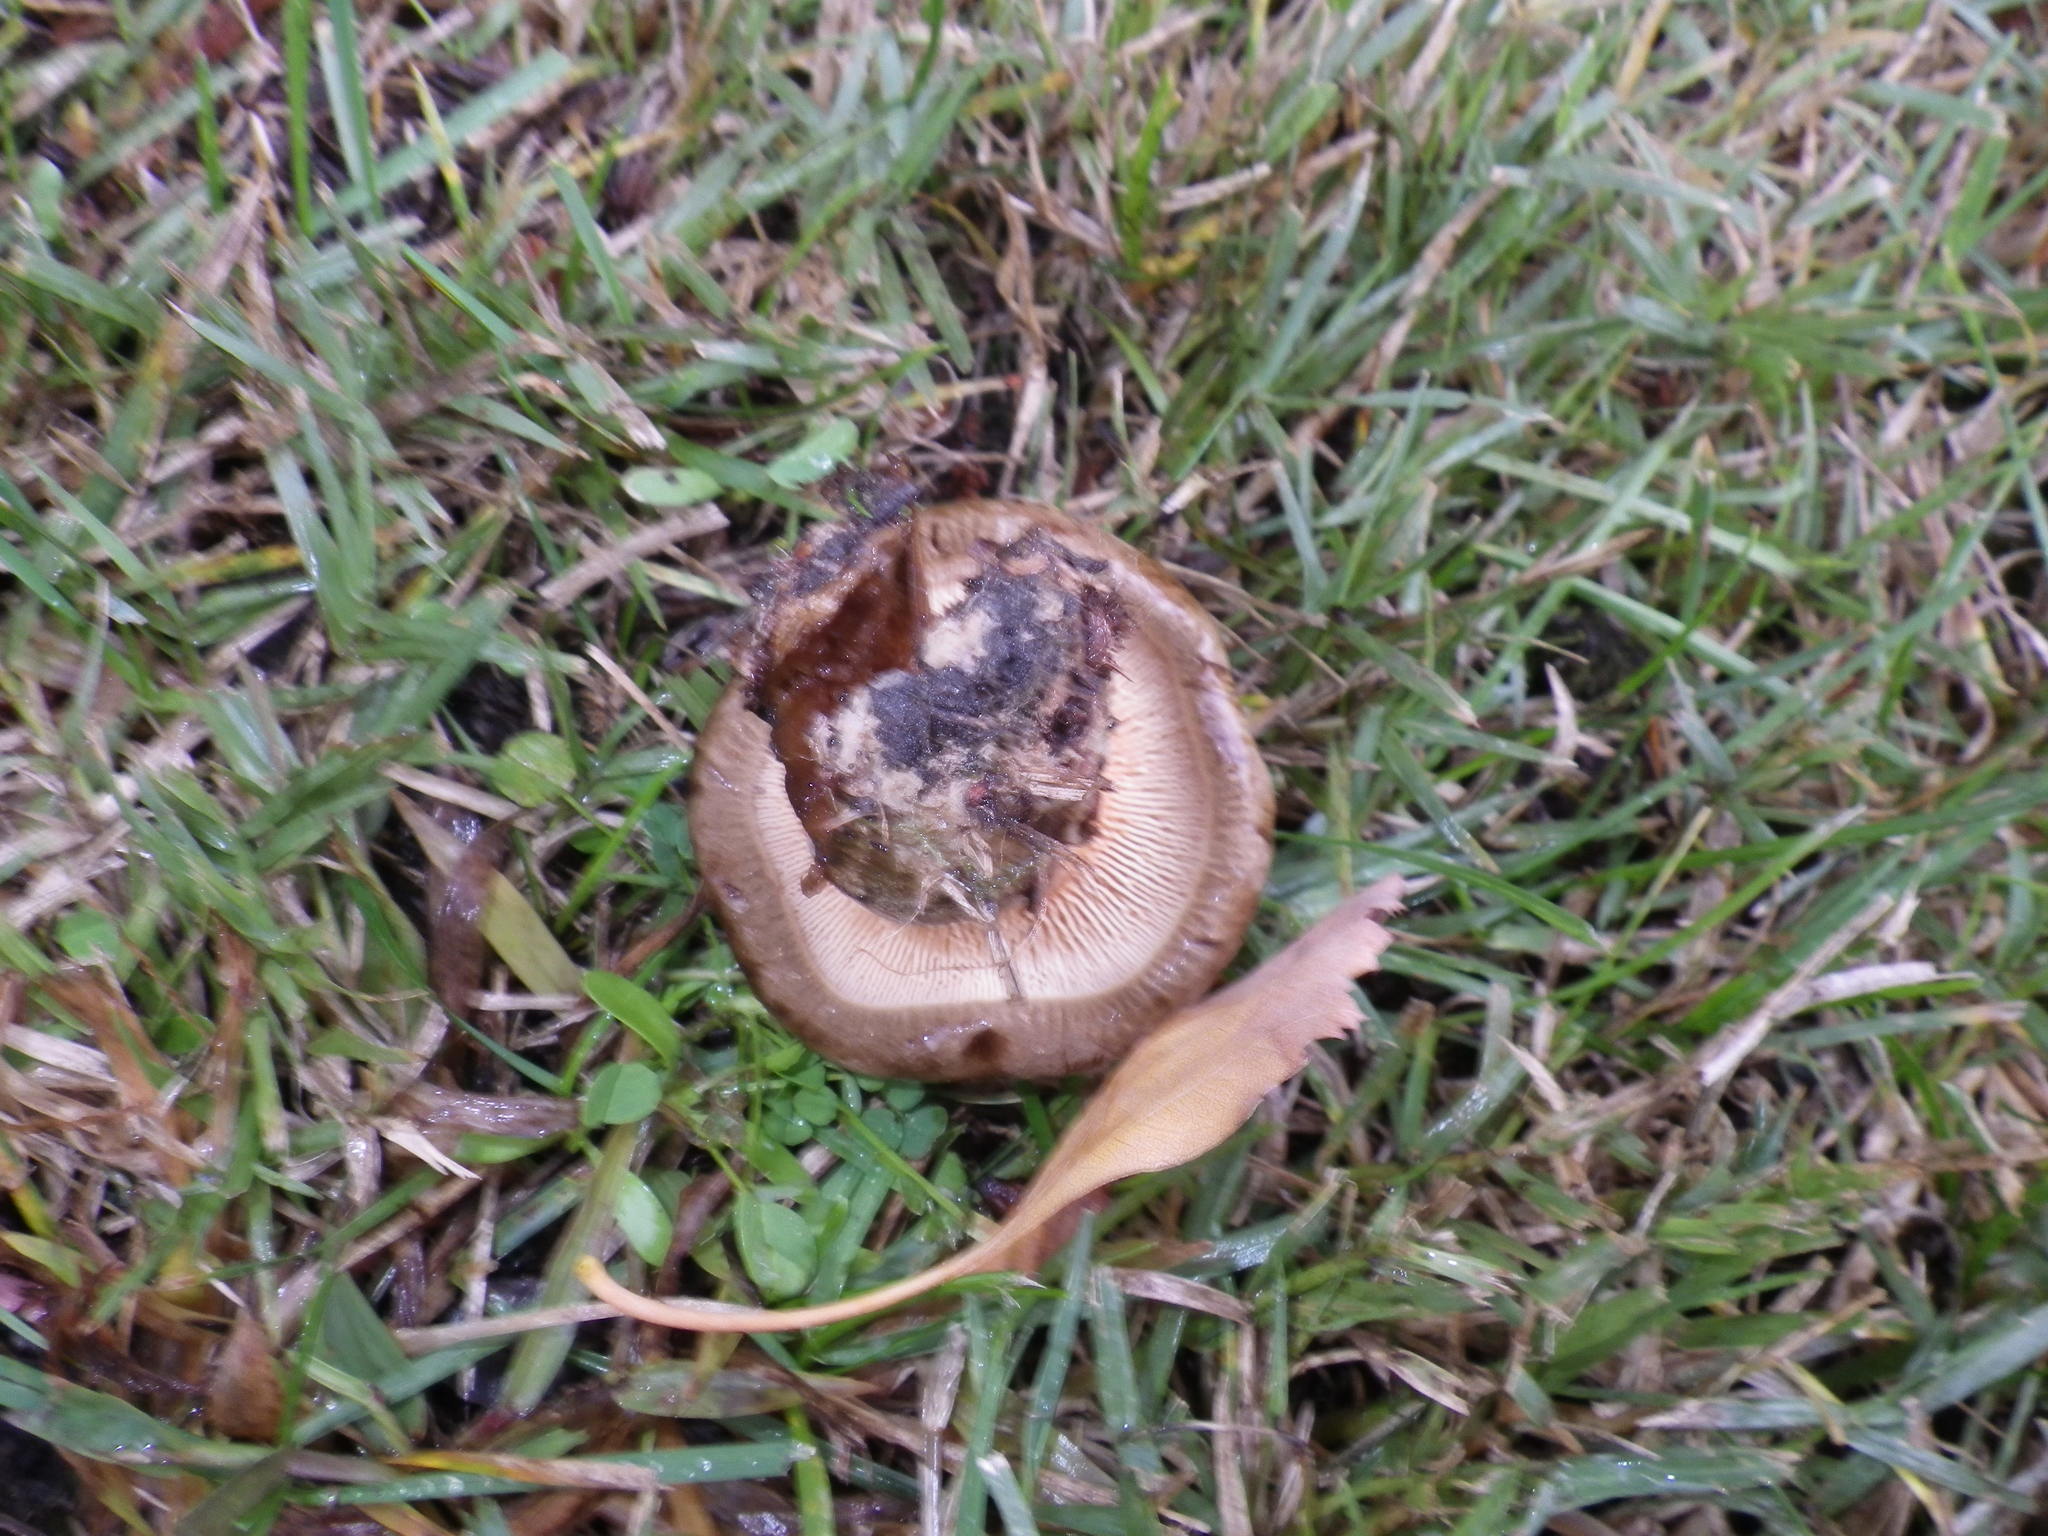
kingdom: Fungi
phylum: Basidiomycota
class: Agaricomycetes
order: Boletales
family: Paxillaceae
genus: Paxillus
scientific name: Paxillus involutus
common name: Brown roll rim
